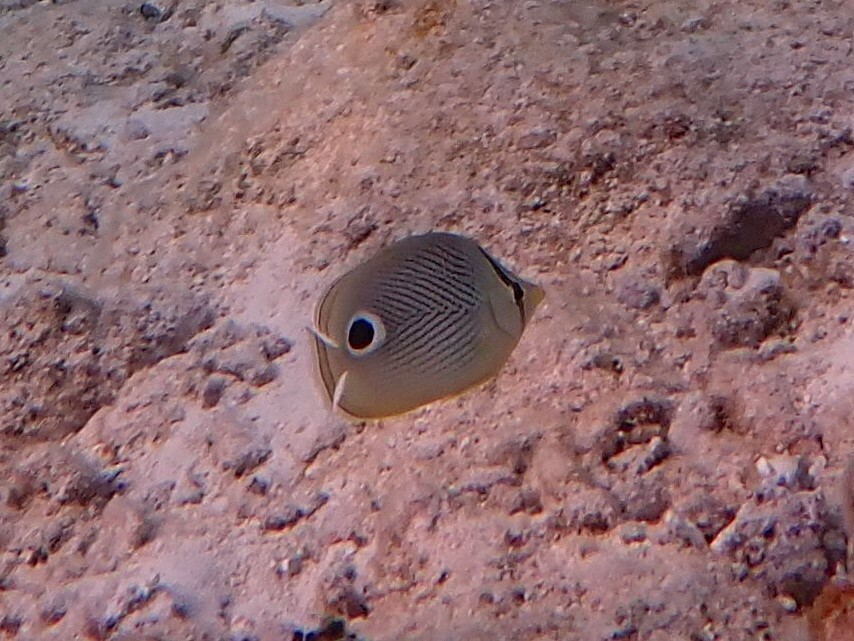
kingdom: Animalia
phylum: Chordata
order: Perciformes
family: Chaetodontidae
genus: Chaetodon
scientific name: Chaetodon capistratus
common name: Kete
